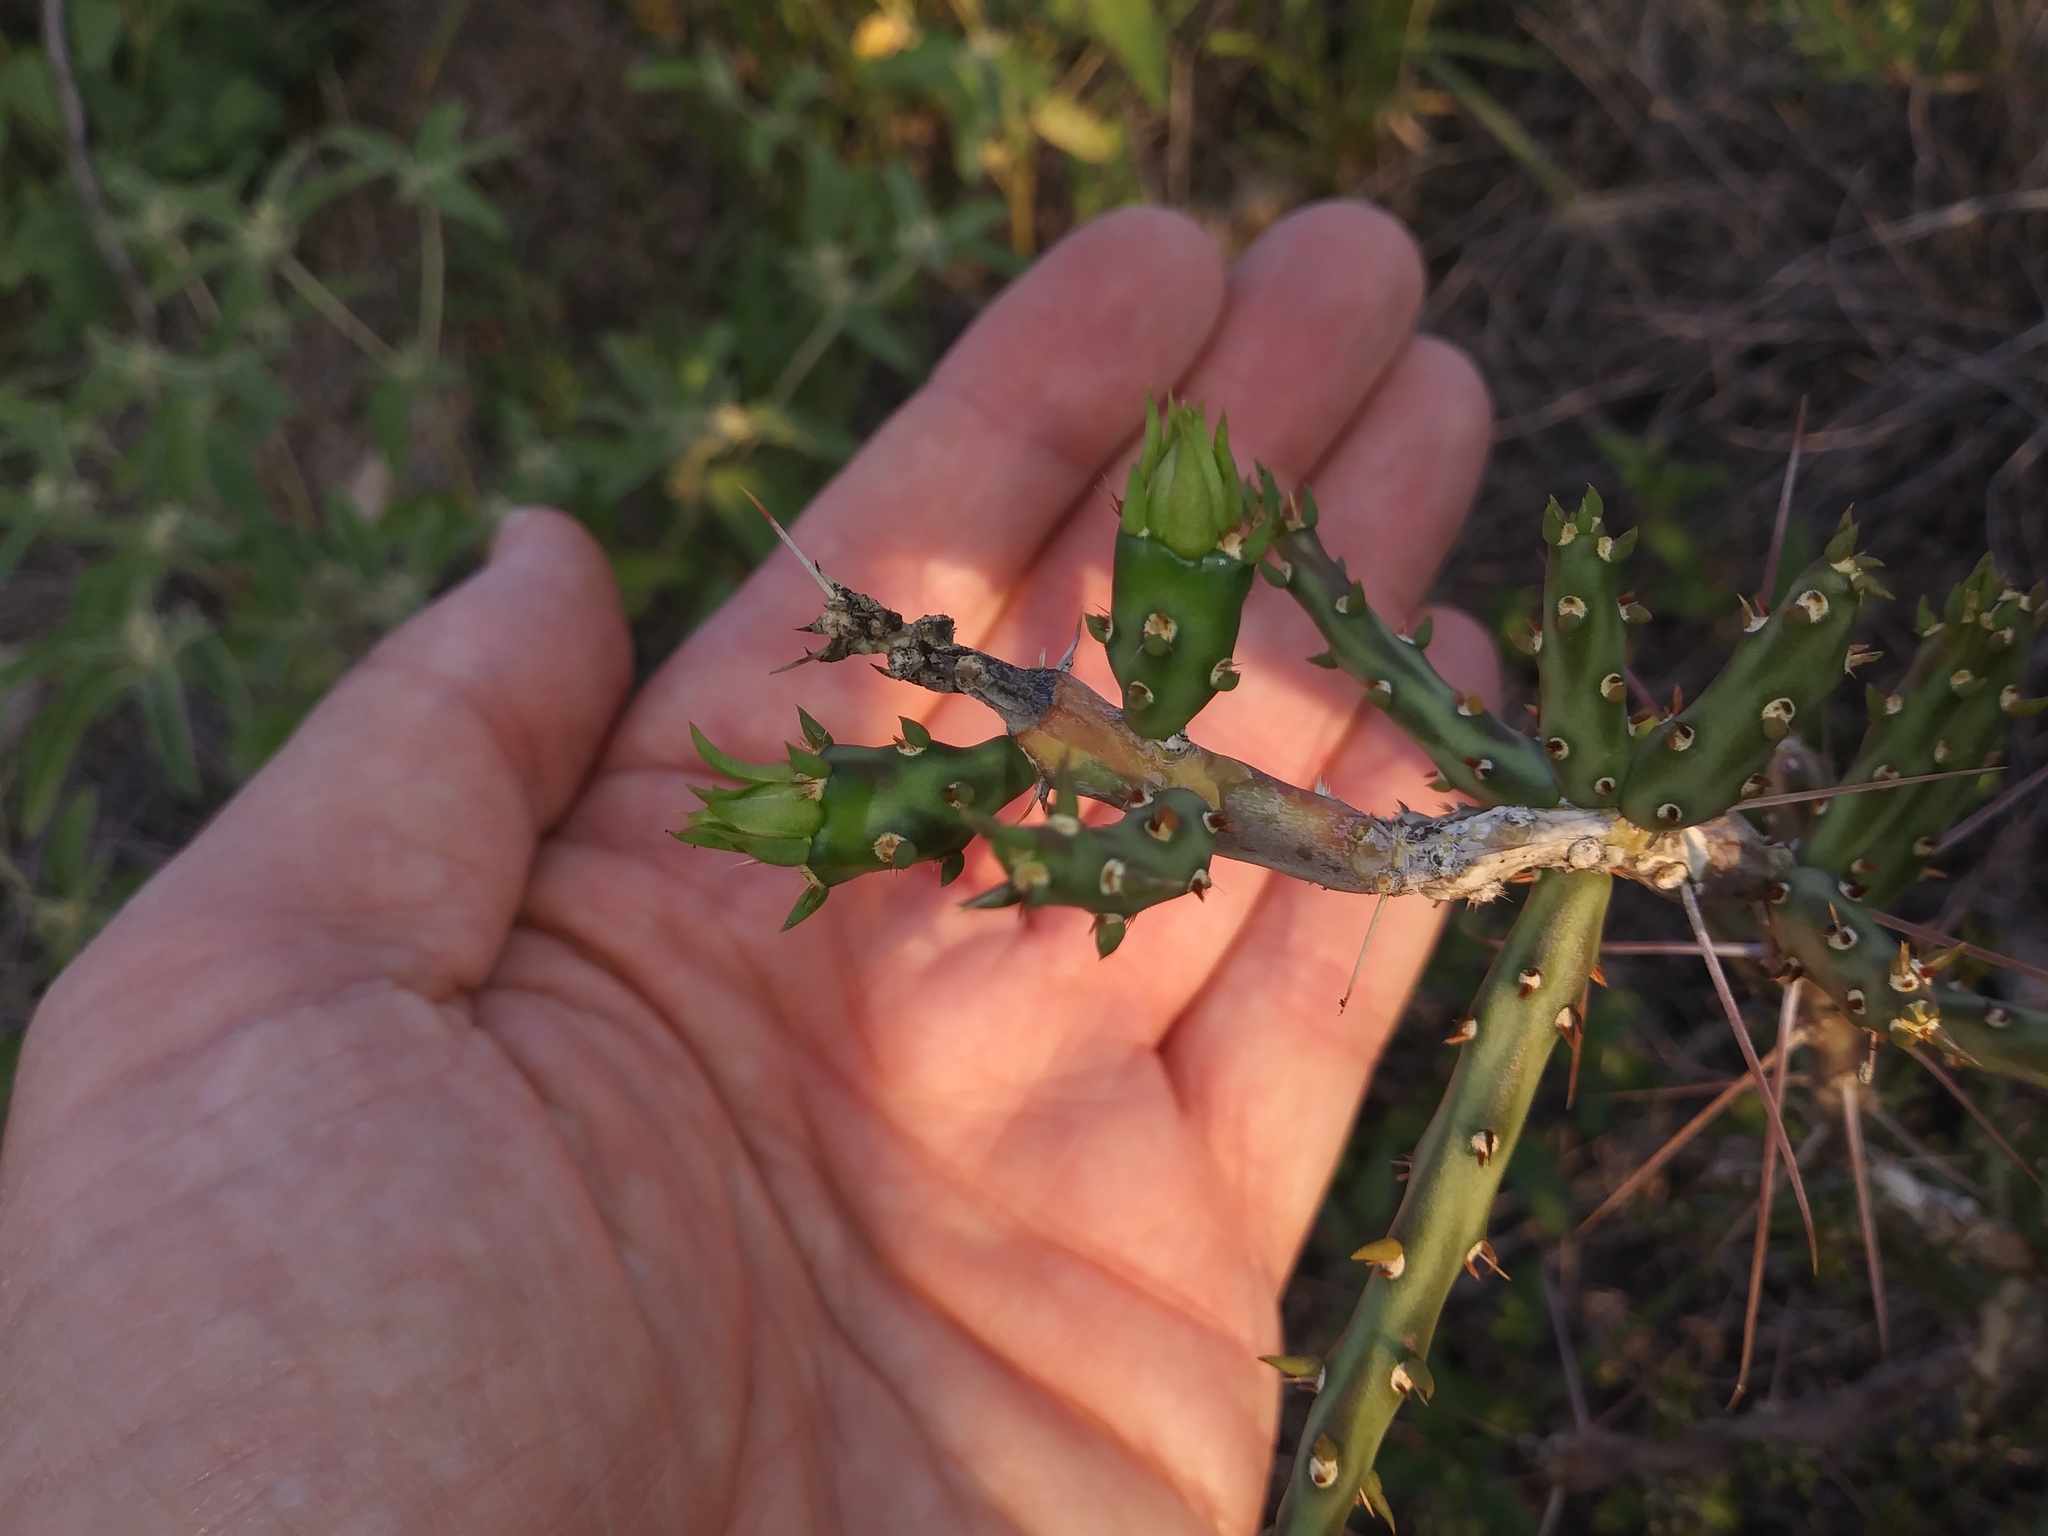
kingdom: Plantae
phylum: Tracheophyta
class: Magnoliopsida
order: Caryophyllales
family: Cactaceae
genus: Cylindropuntia
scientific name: Cylindropuntia leptocaulis
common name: Christmas cactus
